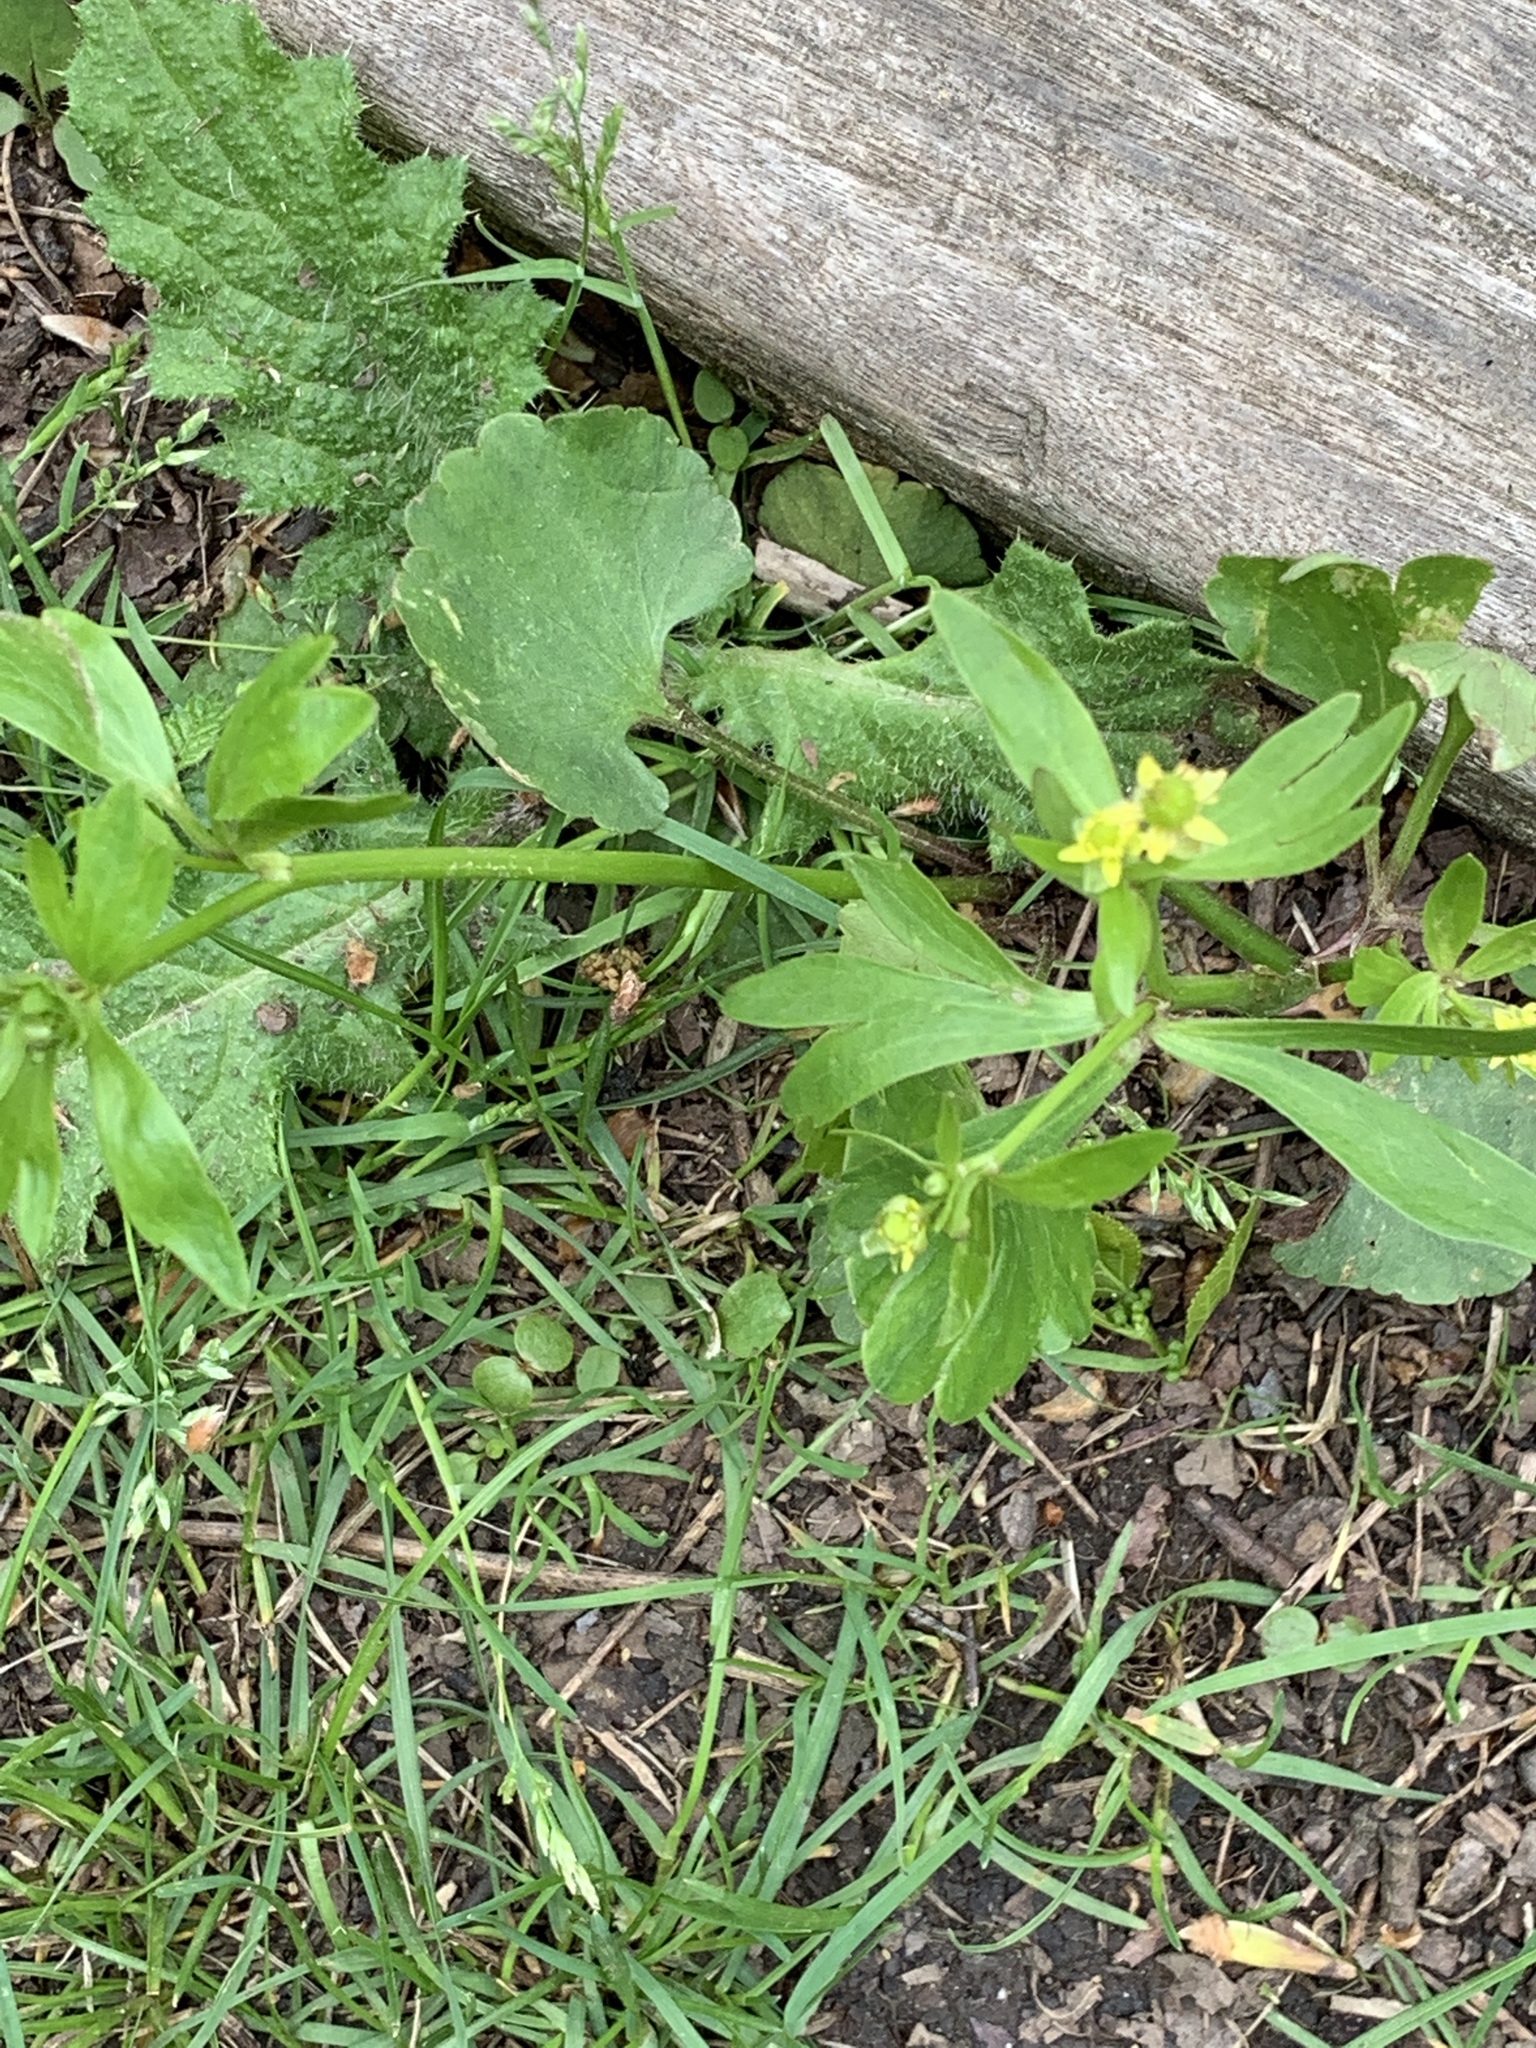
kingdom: Plantae
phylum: Tracheophyta
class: Magnoliopsida
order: Ranunculales
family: Ranunculaceae
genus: Ranunculus
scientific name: Ranunculus abortivus
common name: Early wood buttercup
